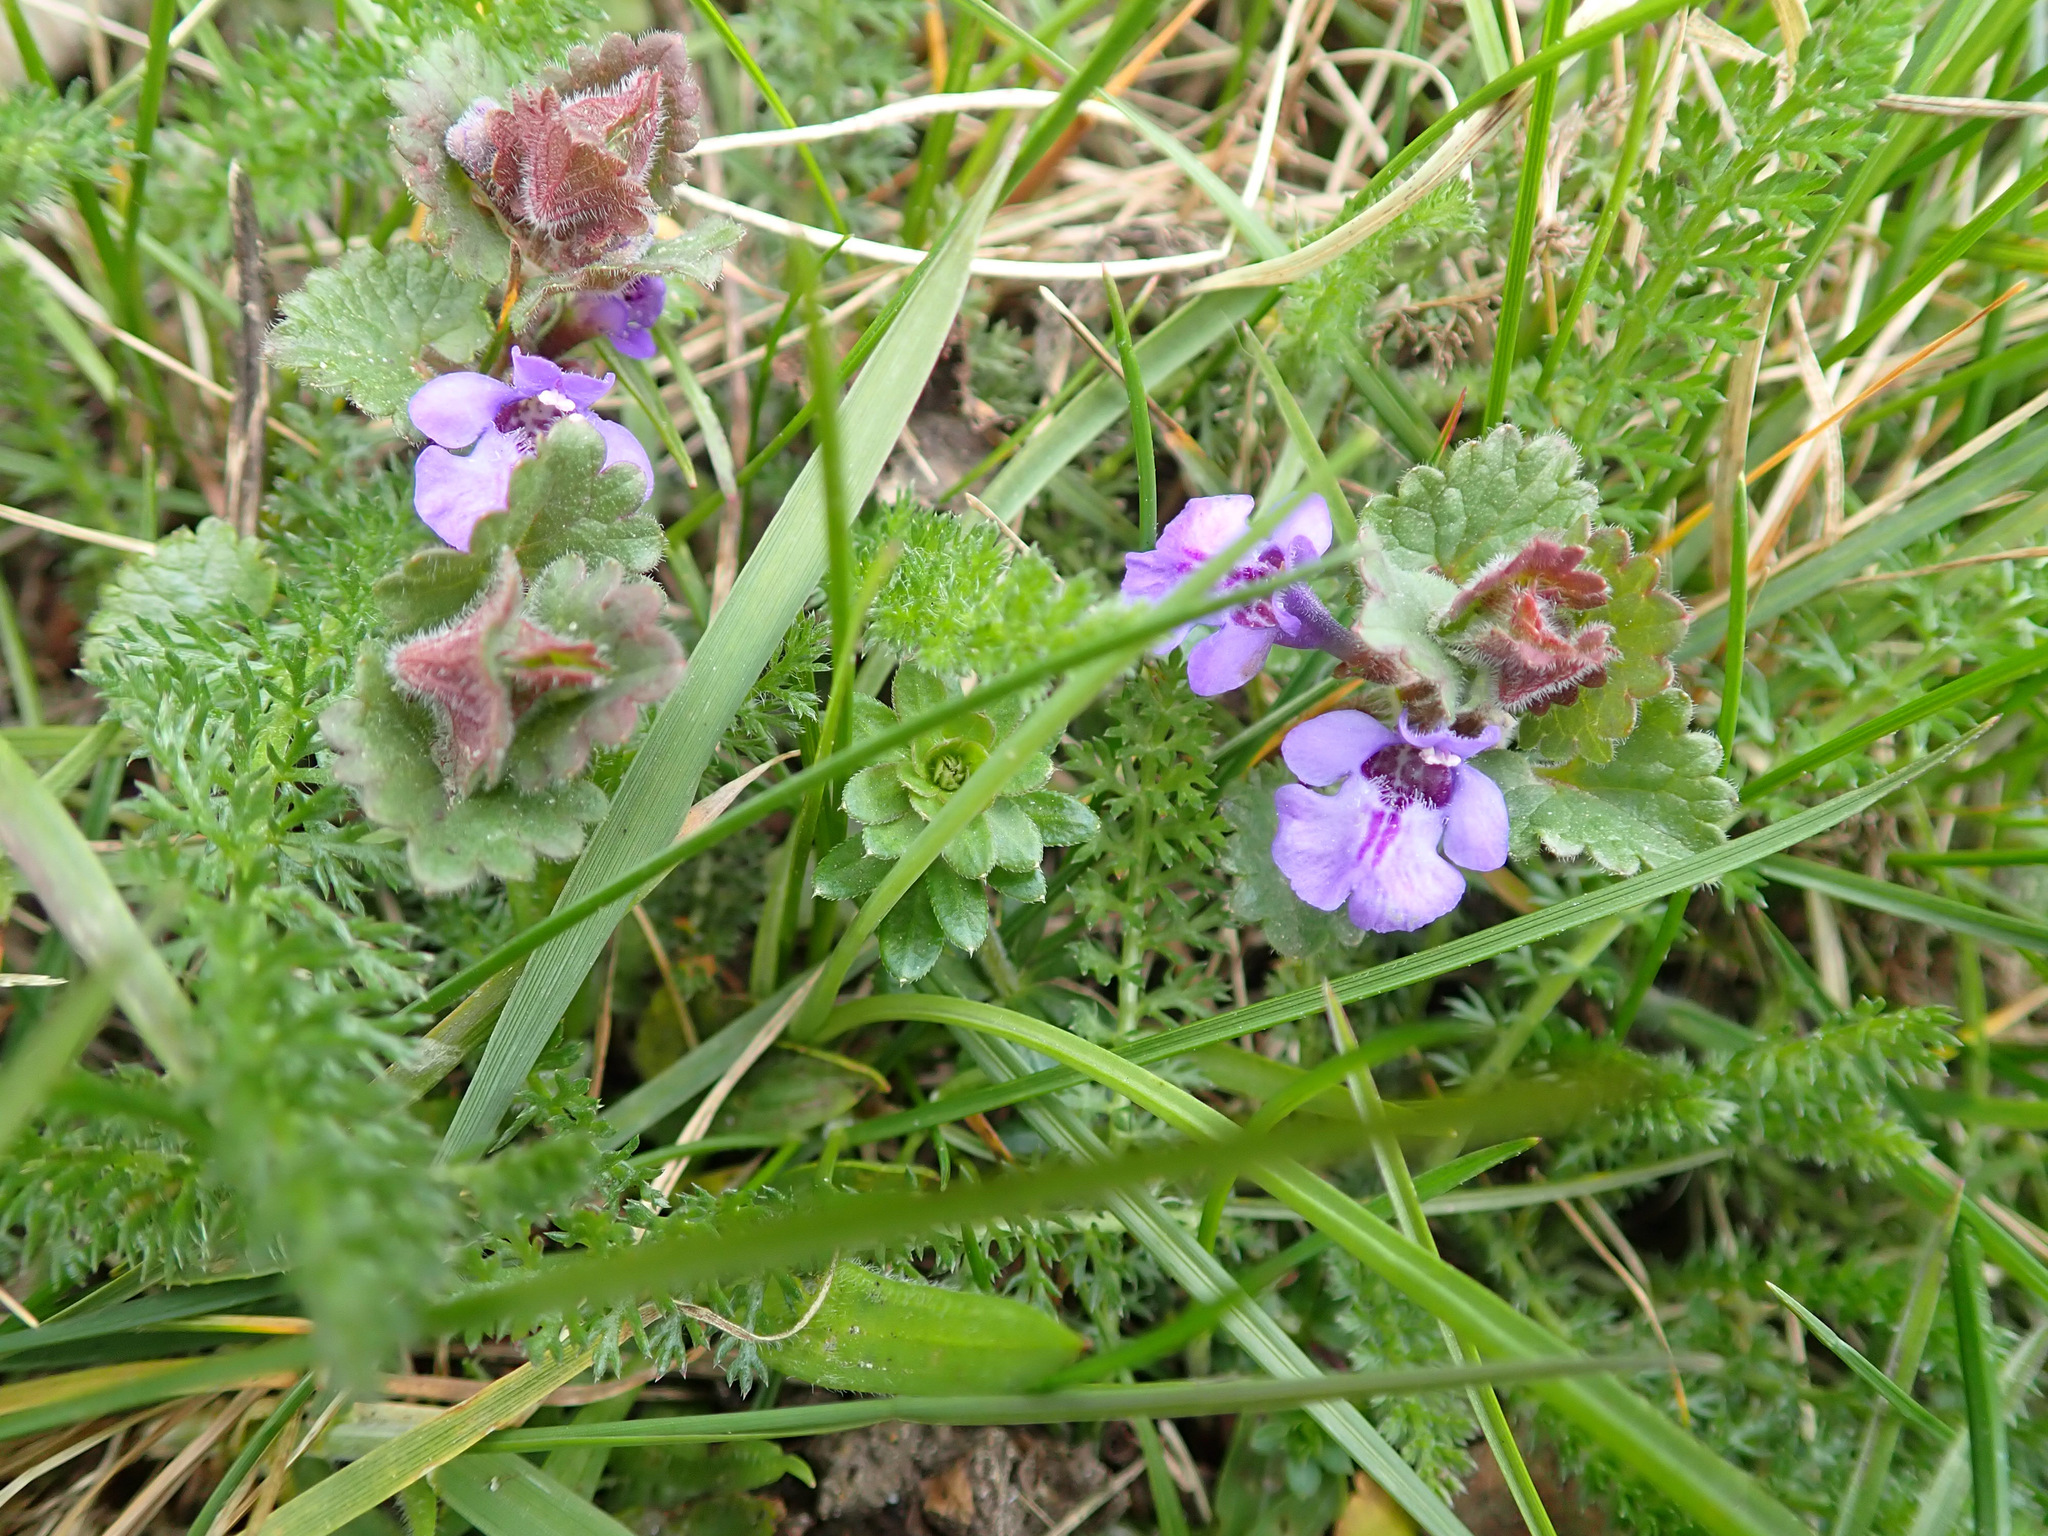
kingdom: Plantae
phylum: Tracheophyta
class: Magnoliopsida
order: Lamiales
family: Lamiaceae
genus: Glechoma
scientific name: Glechoma hederacea
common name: Ground ivy
